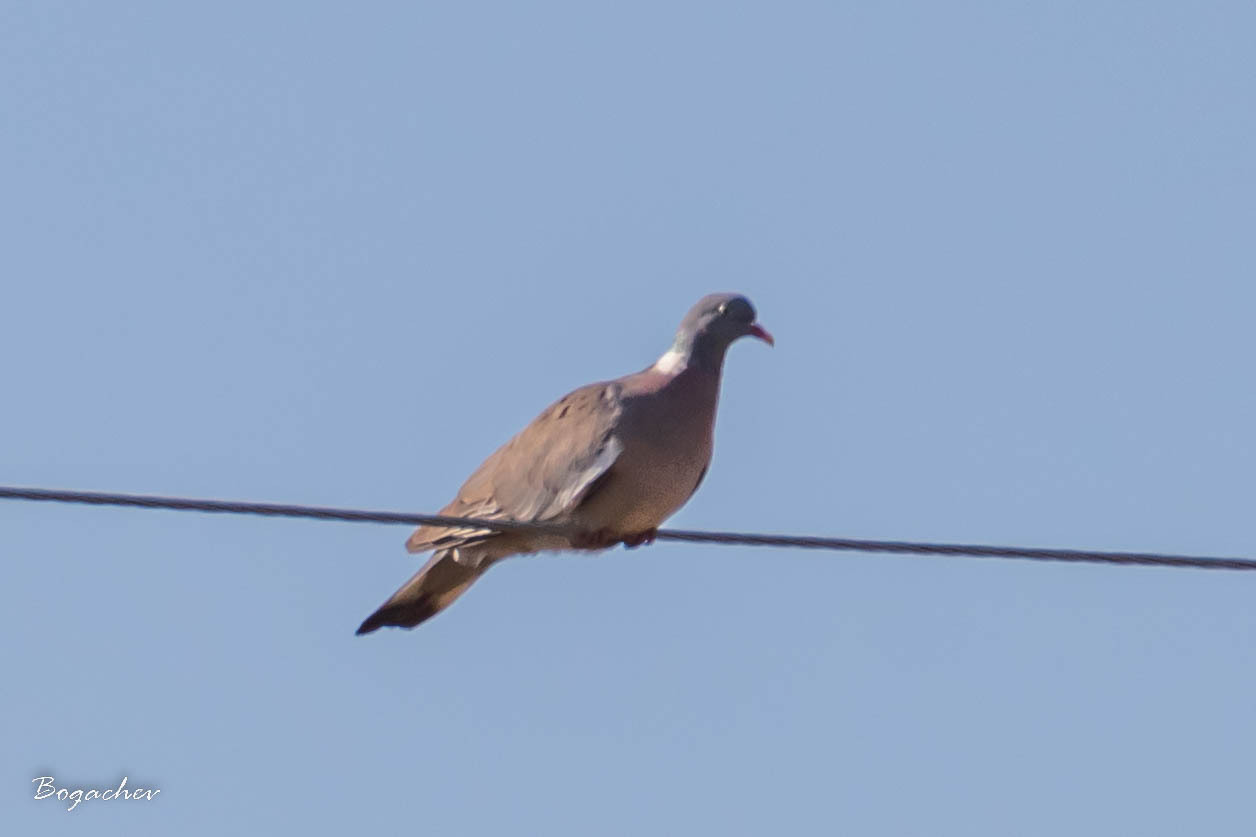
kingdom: Animalia
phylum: Chordata
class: Aves
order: Columbiformes
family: Columbidae
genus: Columba
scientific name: Columba palumbus
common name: Common wood pigeon
